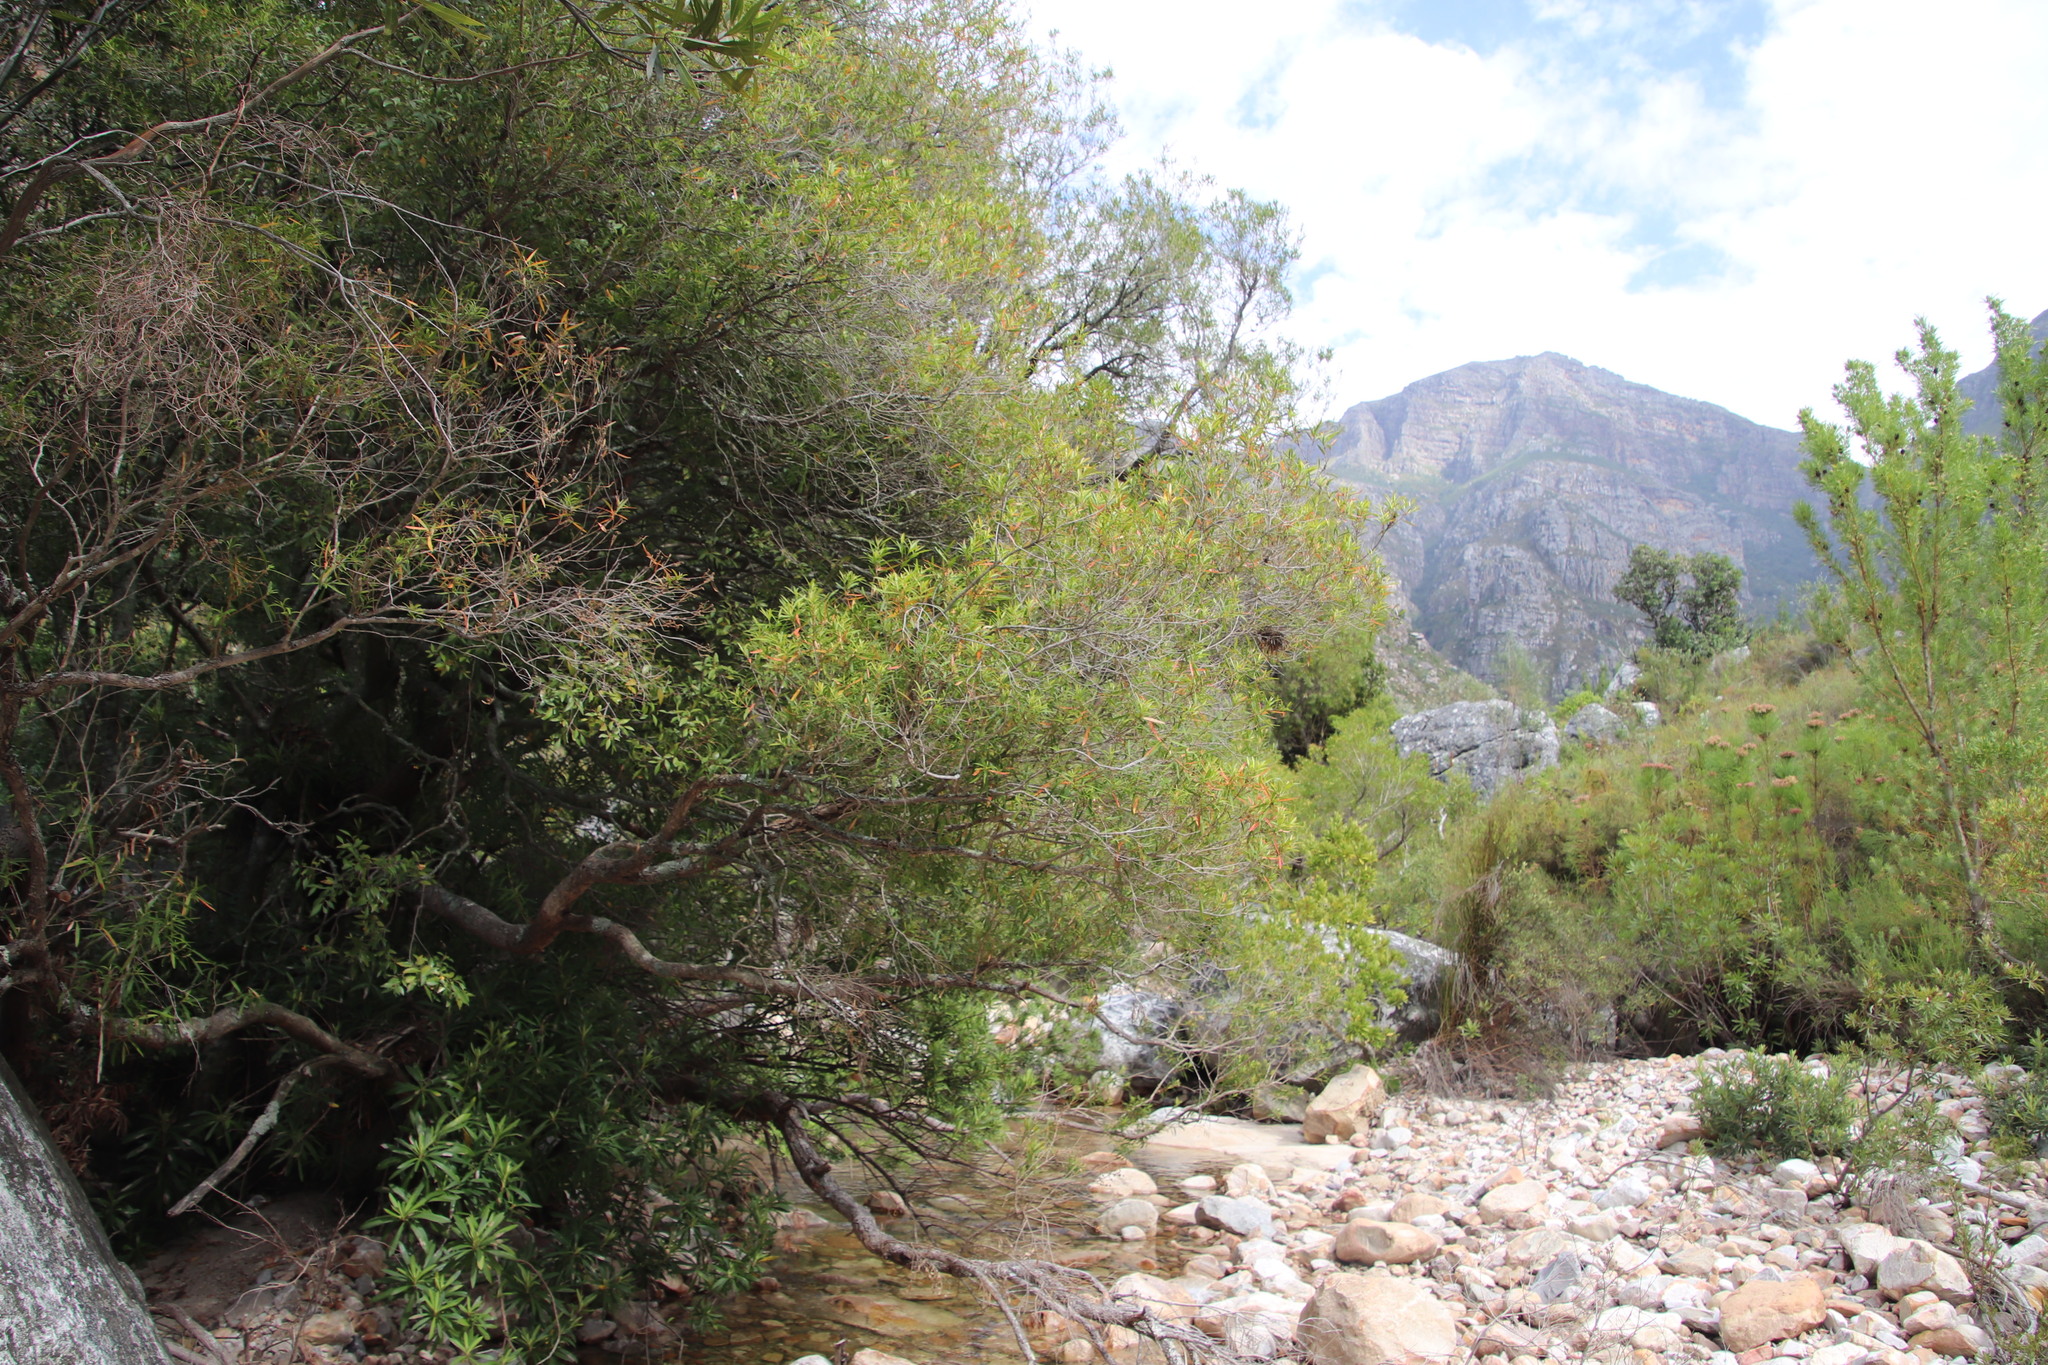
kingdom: Plantae
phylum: Tracheophyta
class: Magnoliopsida
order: Myrtales
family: Myrtaceae
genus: Callistemon
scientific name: Callistemon lanceolatus
